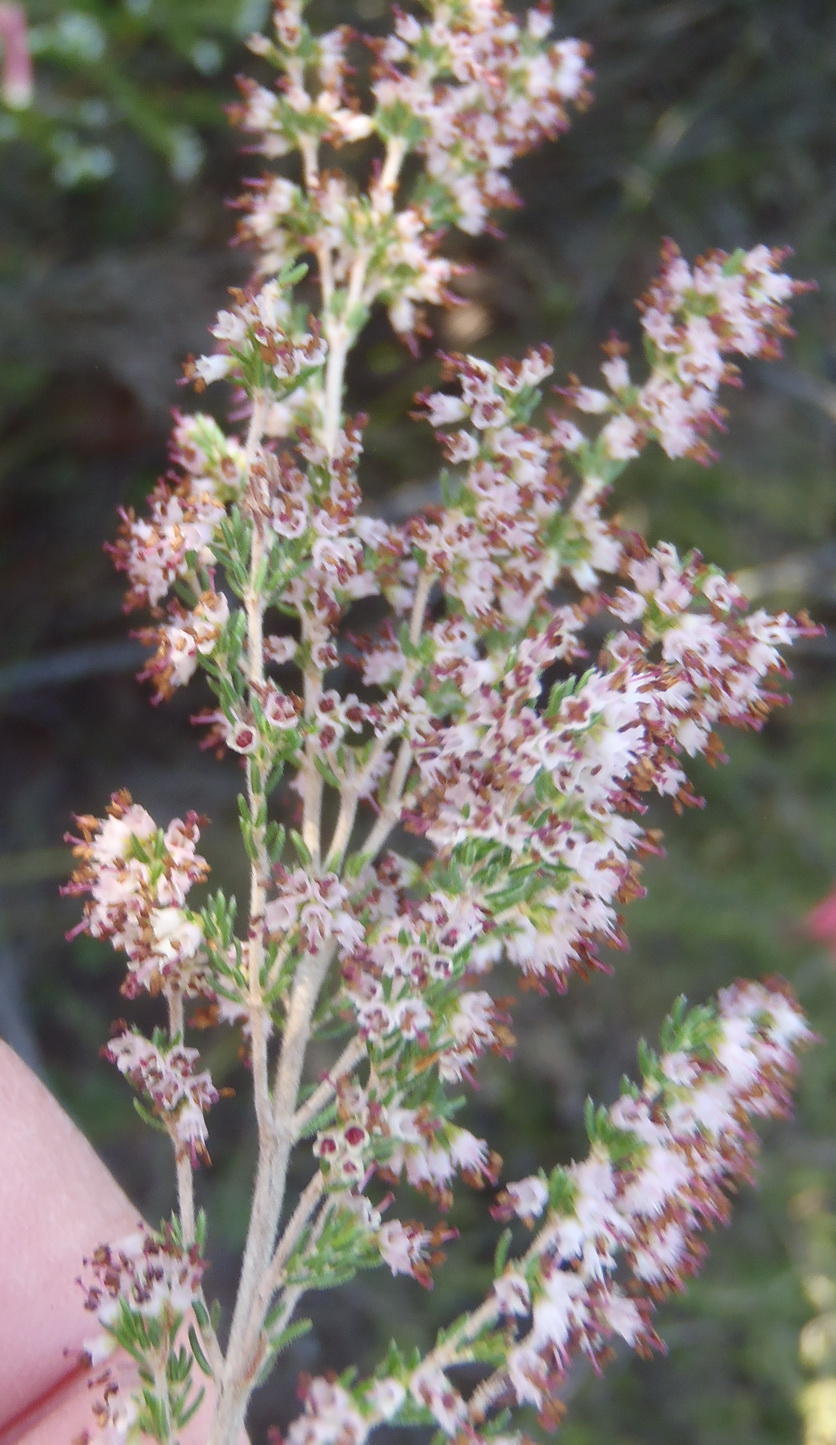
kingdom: Plantae
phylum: Tracheophyta
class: Magnoliopsida
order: Ericales
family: Ericaceae
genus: Erica
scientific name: Erica klotzschii
